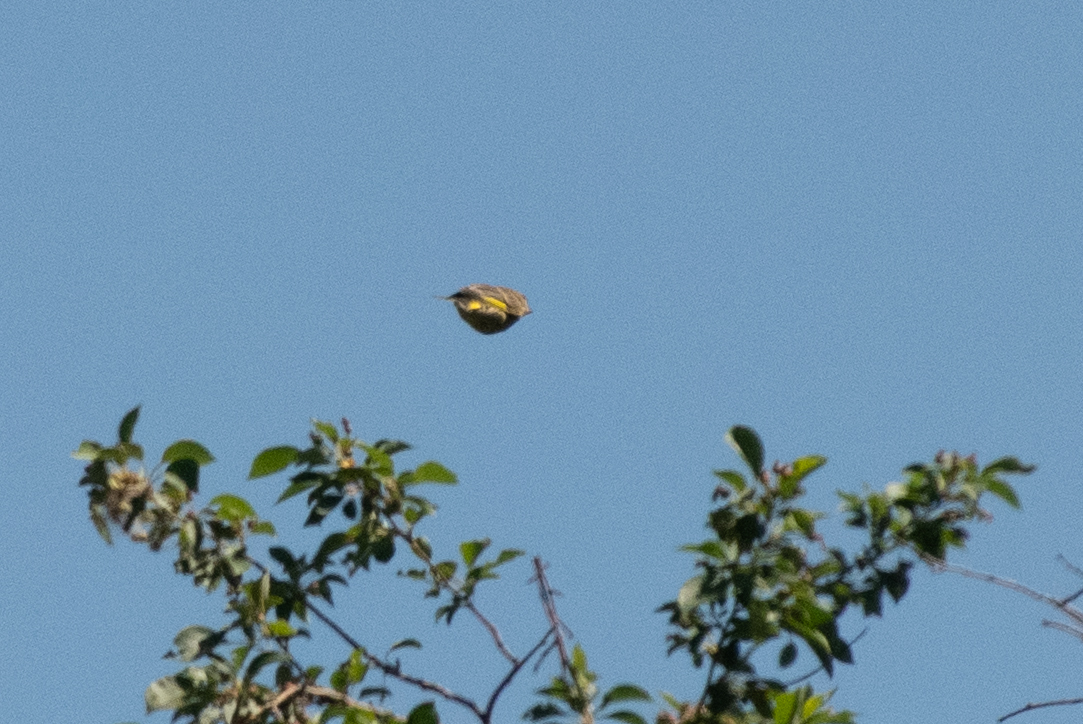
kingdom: Plantae
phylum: Tracheophyta
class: Liliopsida
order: Poales
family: Poaceae
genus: Chloris
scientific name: Chloris chloris
